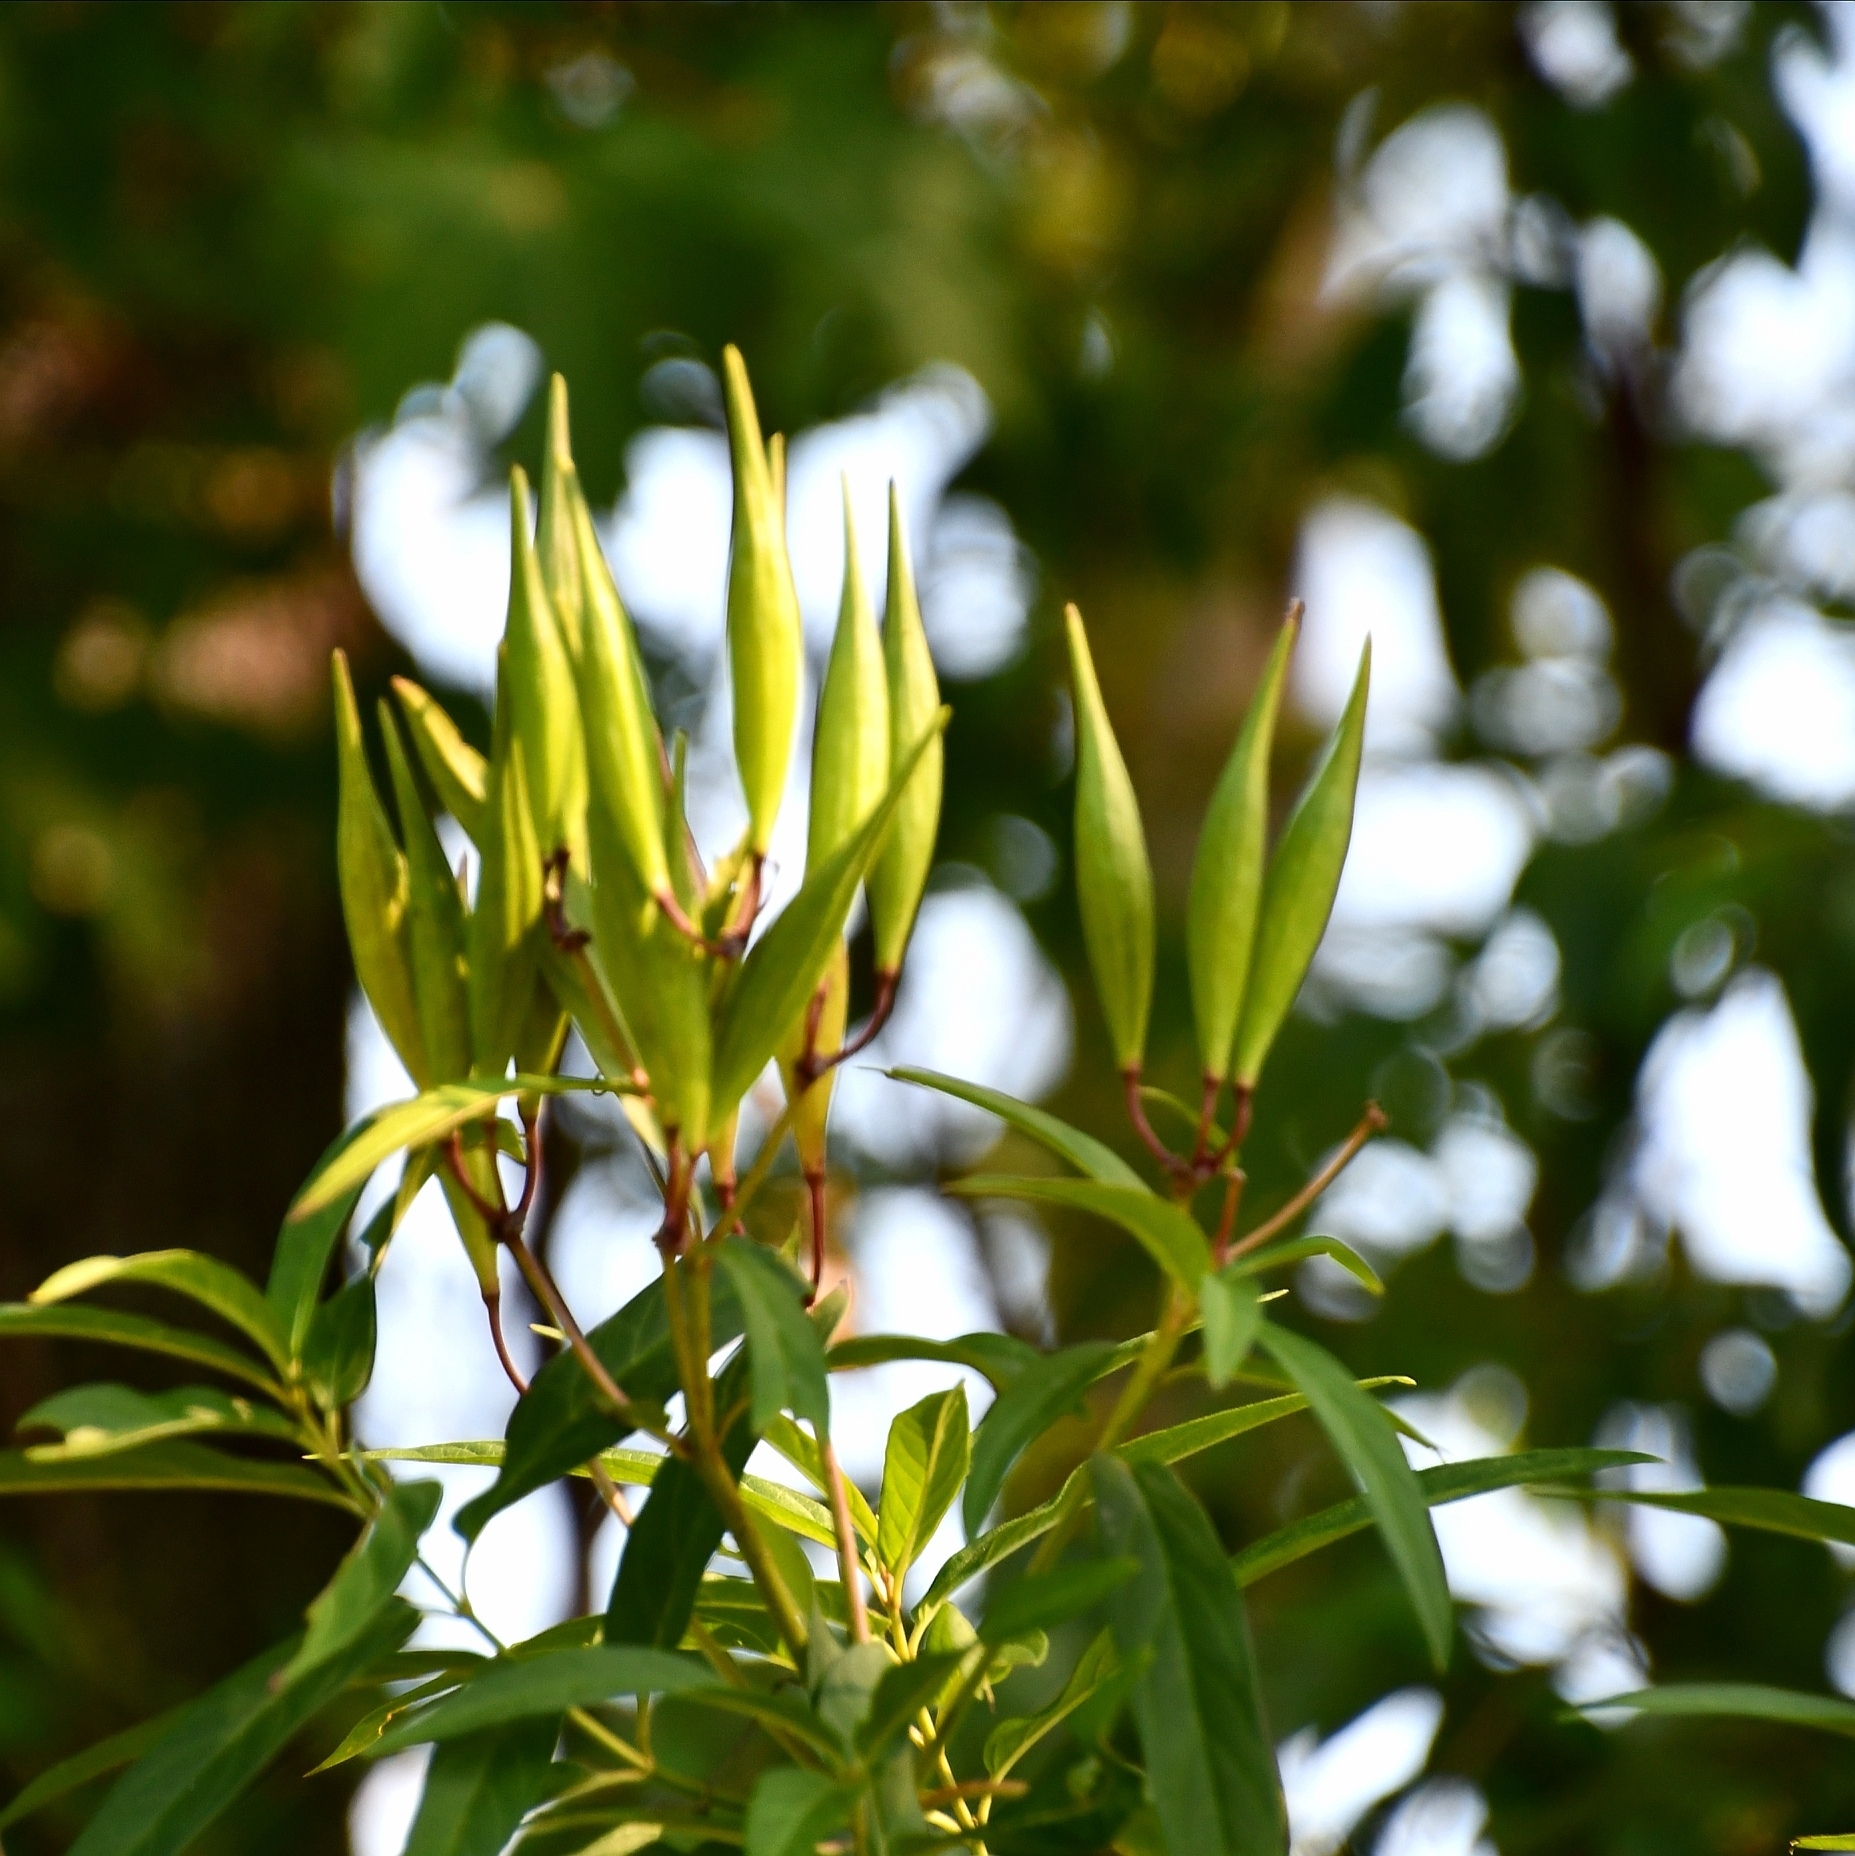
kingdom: Plantae
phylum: Tracheophyta
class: Magnoliopsida
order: Gentianales
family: Apocynaceae
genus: Asclepias
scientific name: Asclepias incarnata
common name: Swamp milkweed
